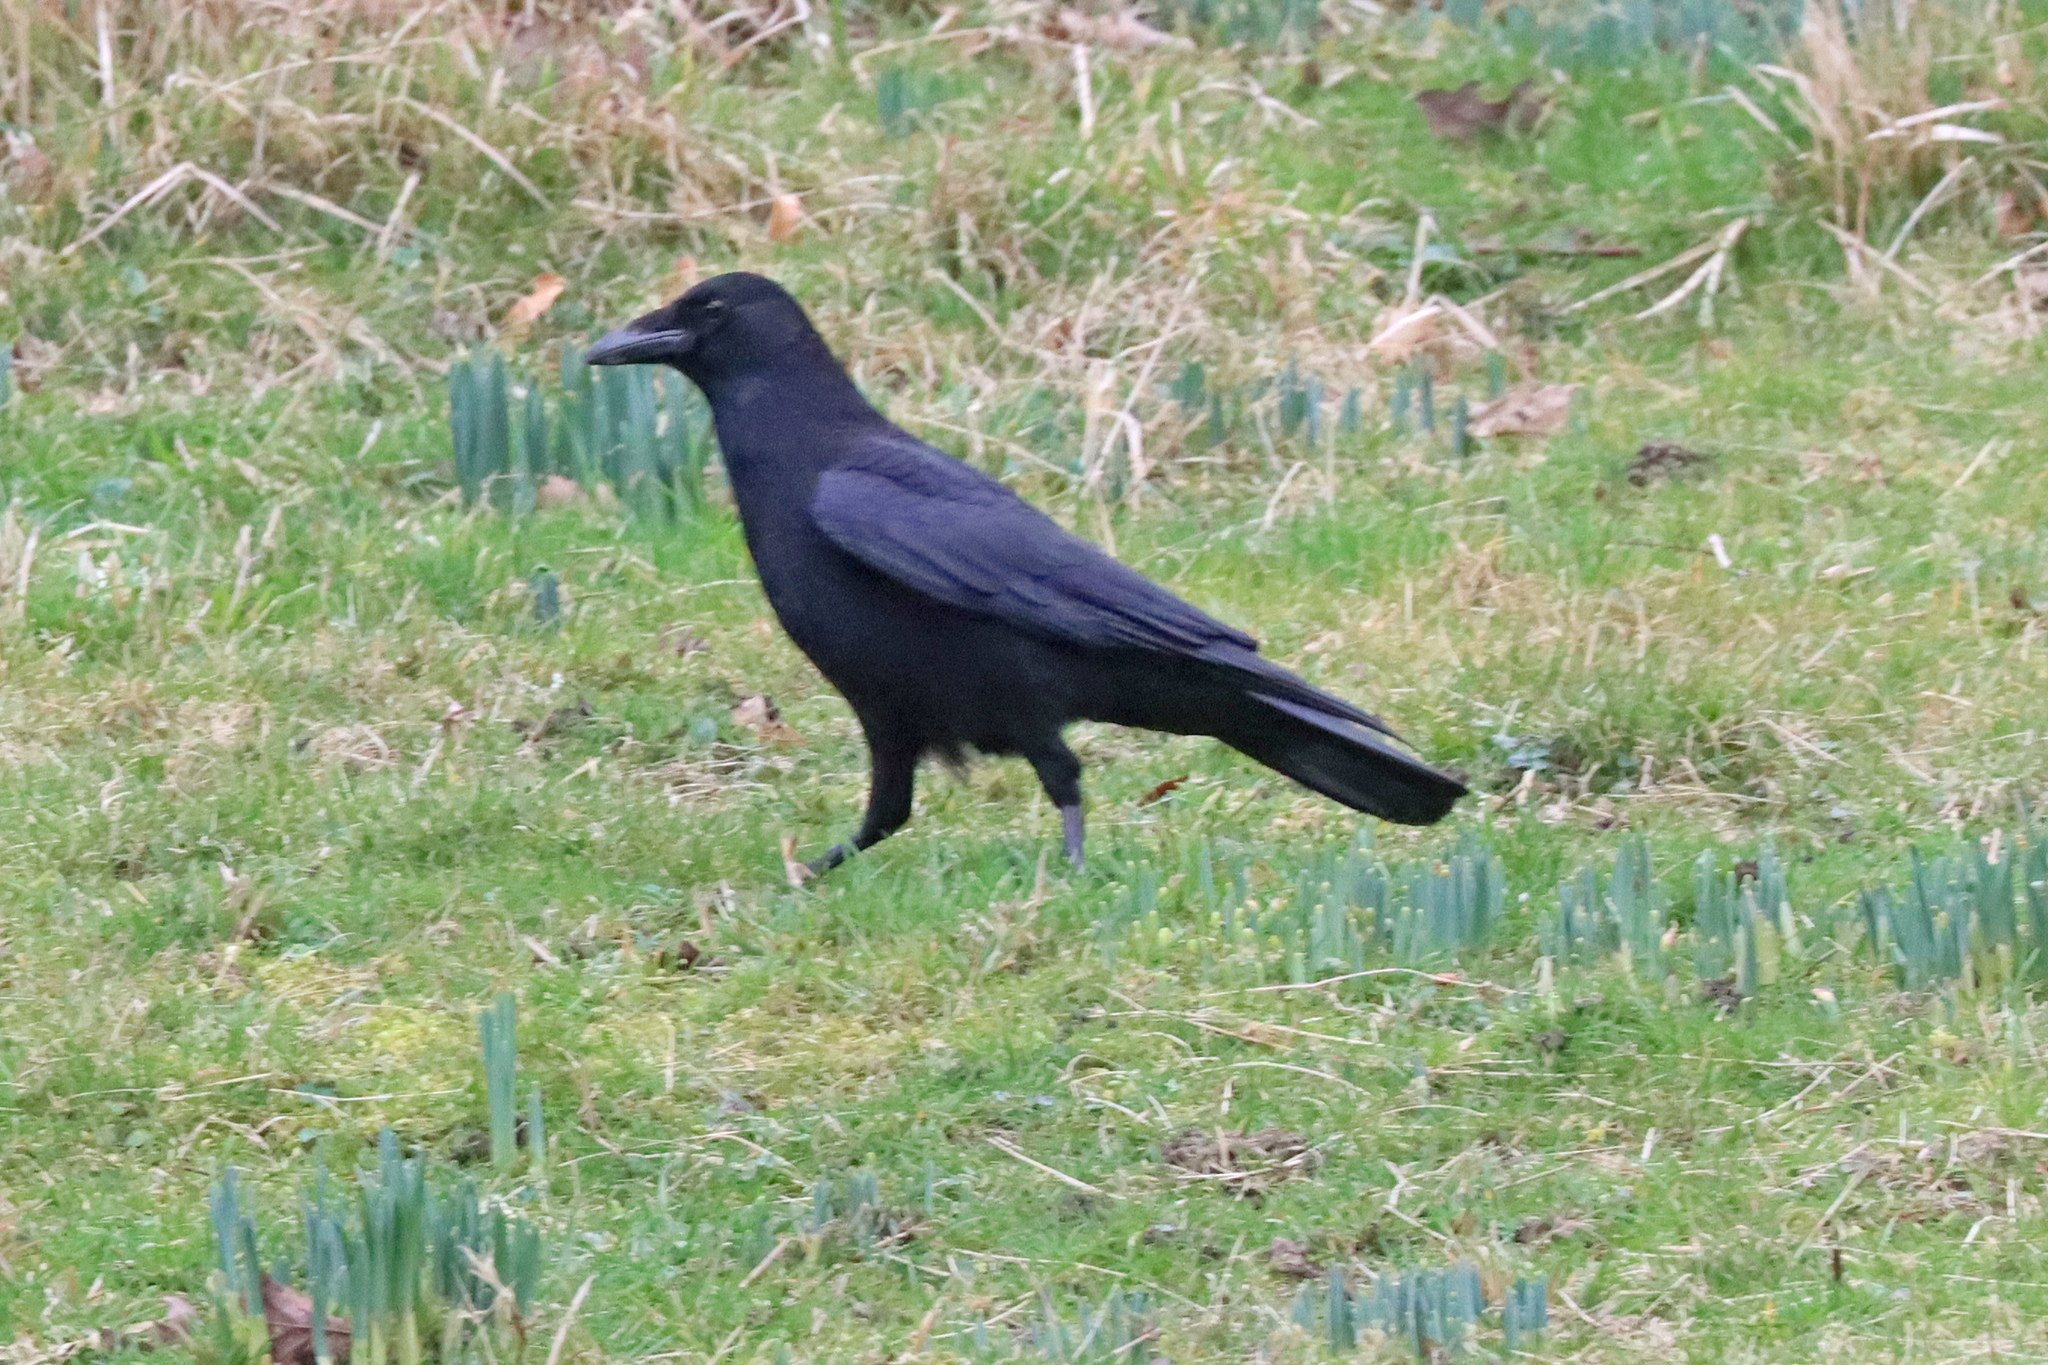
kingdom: Animalia
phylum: Chordata
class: Aves
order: Passeriformes
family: Corvidae
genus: Corvus
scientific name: Corvus corone
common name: Carrion crow
